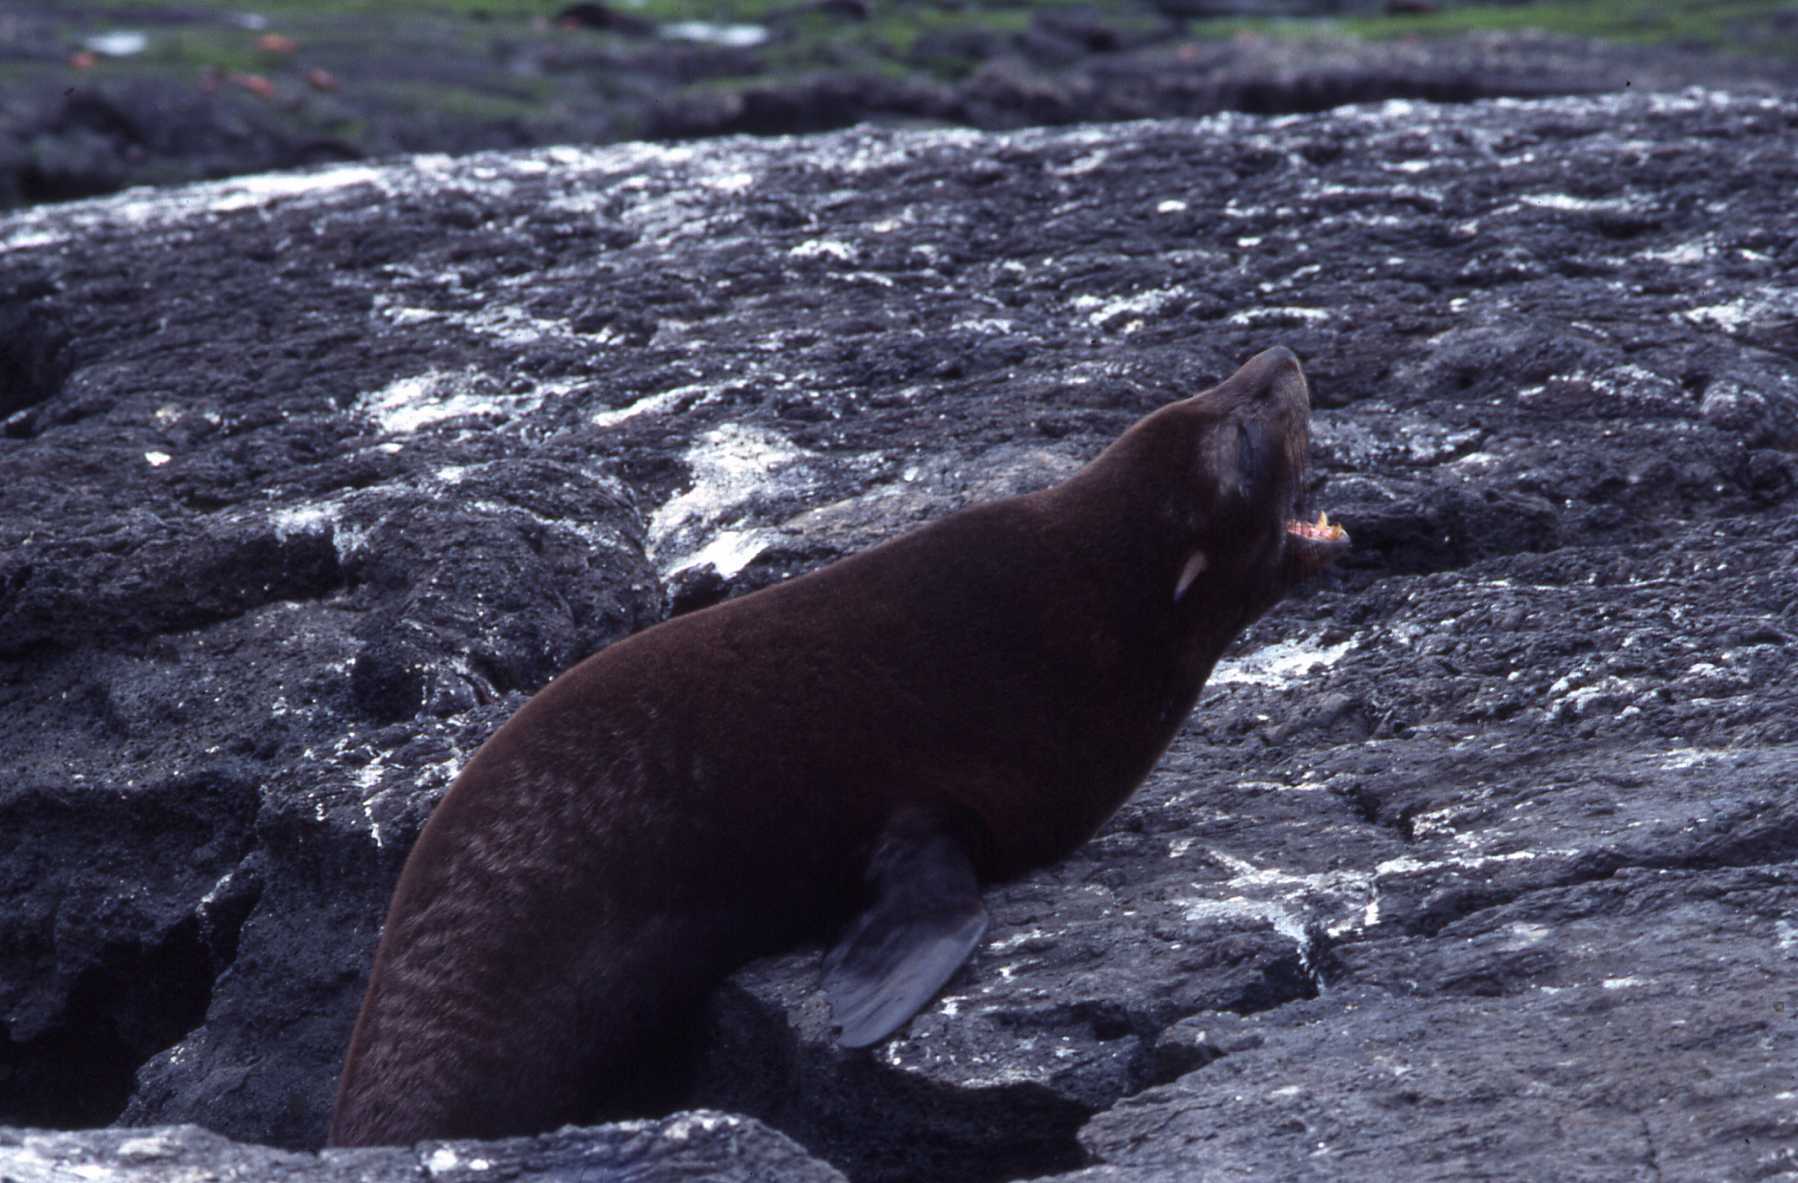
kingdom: Animalia
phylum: Chordata
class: Mammalia
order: Carnivora
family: Otariidae
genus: Arctocephalus
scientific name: Arctocephalus galapagoensis
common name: Galapagos fur seal
